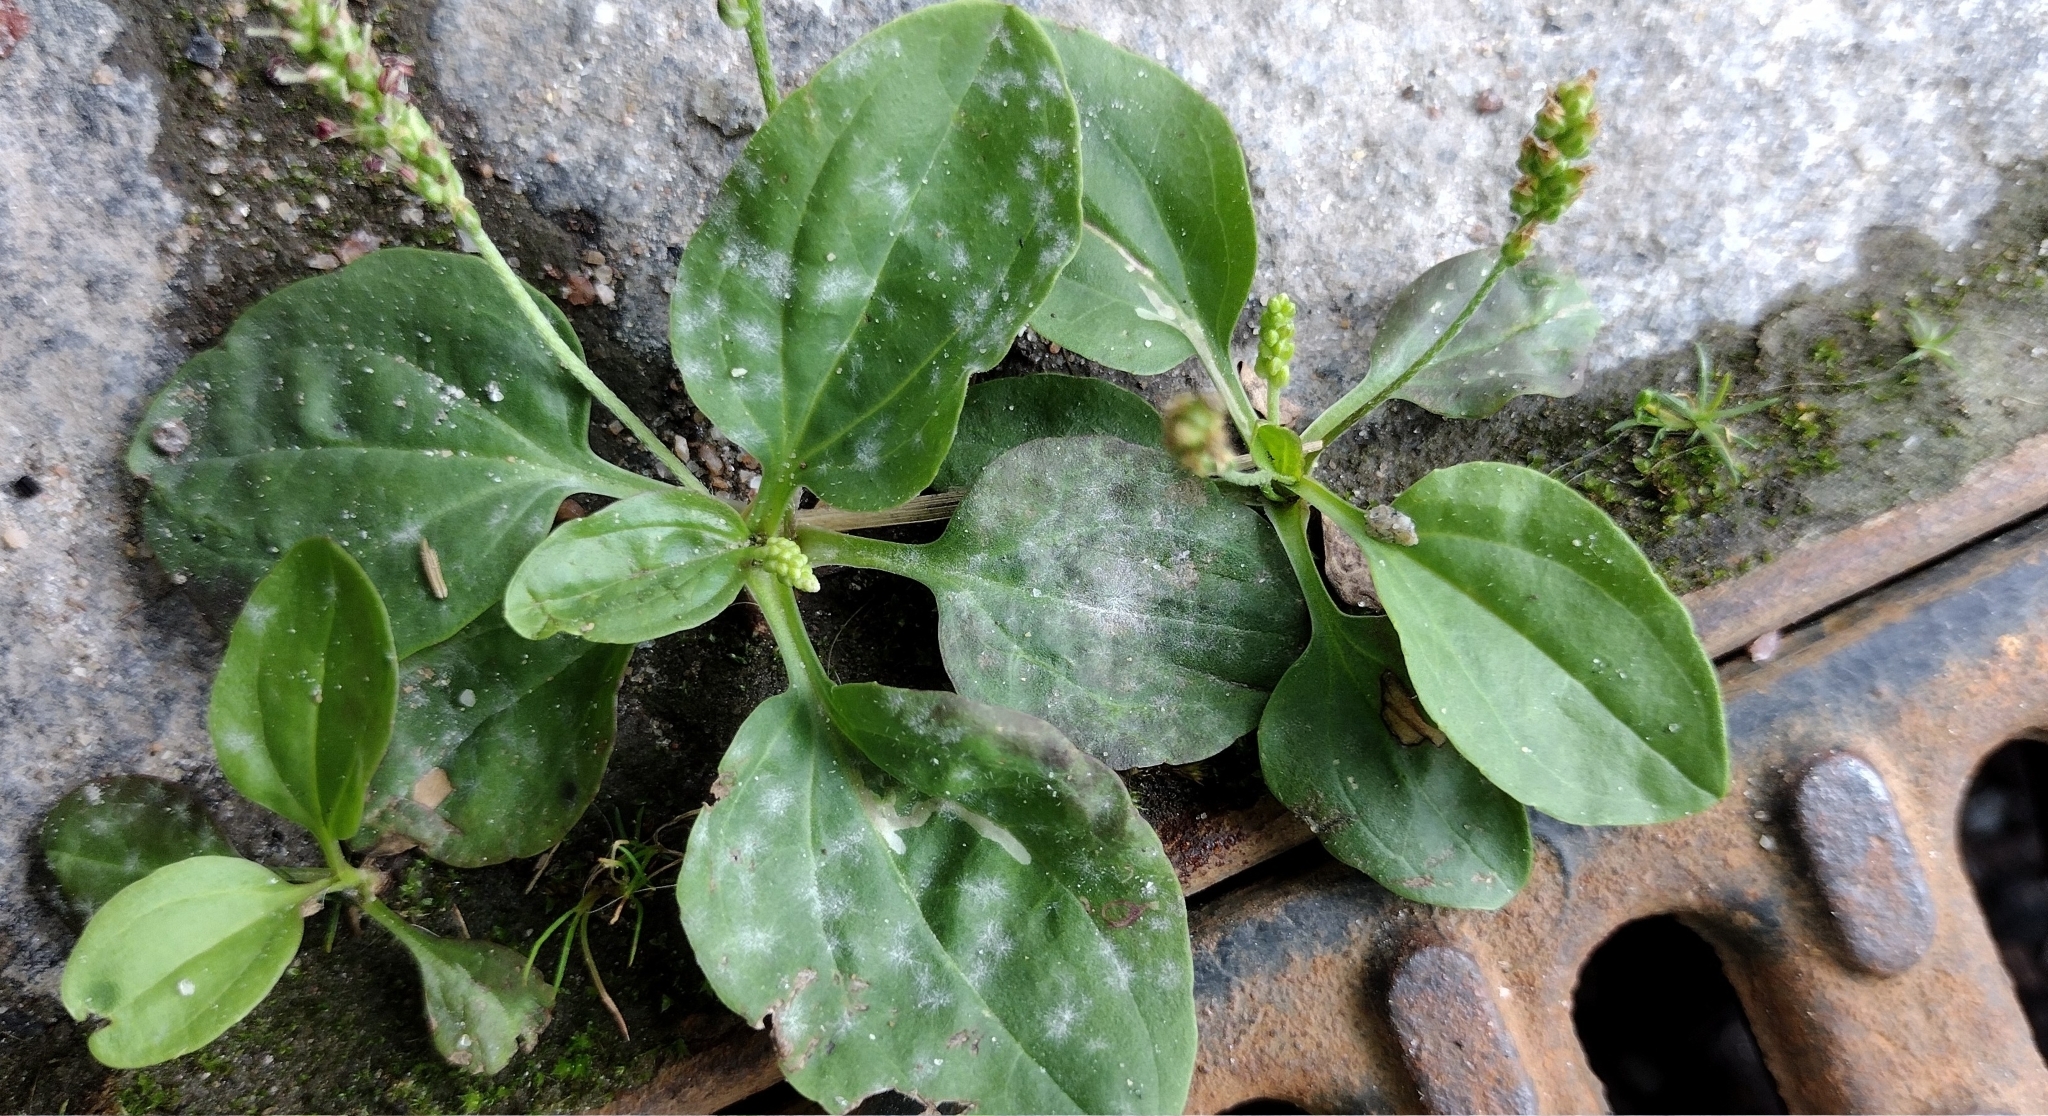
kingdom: Plantae
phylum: Tracheophyta
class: Magnoliopsida
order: Lamiales
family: Plantaginaceae
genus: Plantago
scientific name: Plantago major
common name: Common plantain
